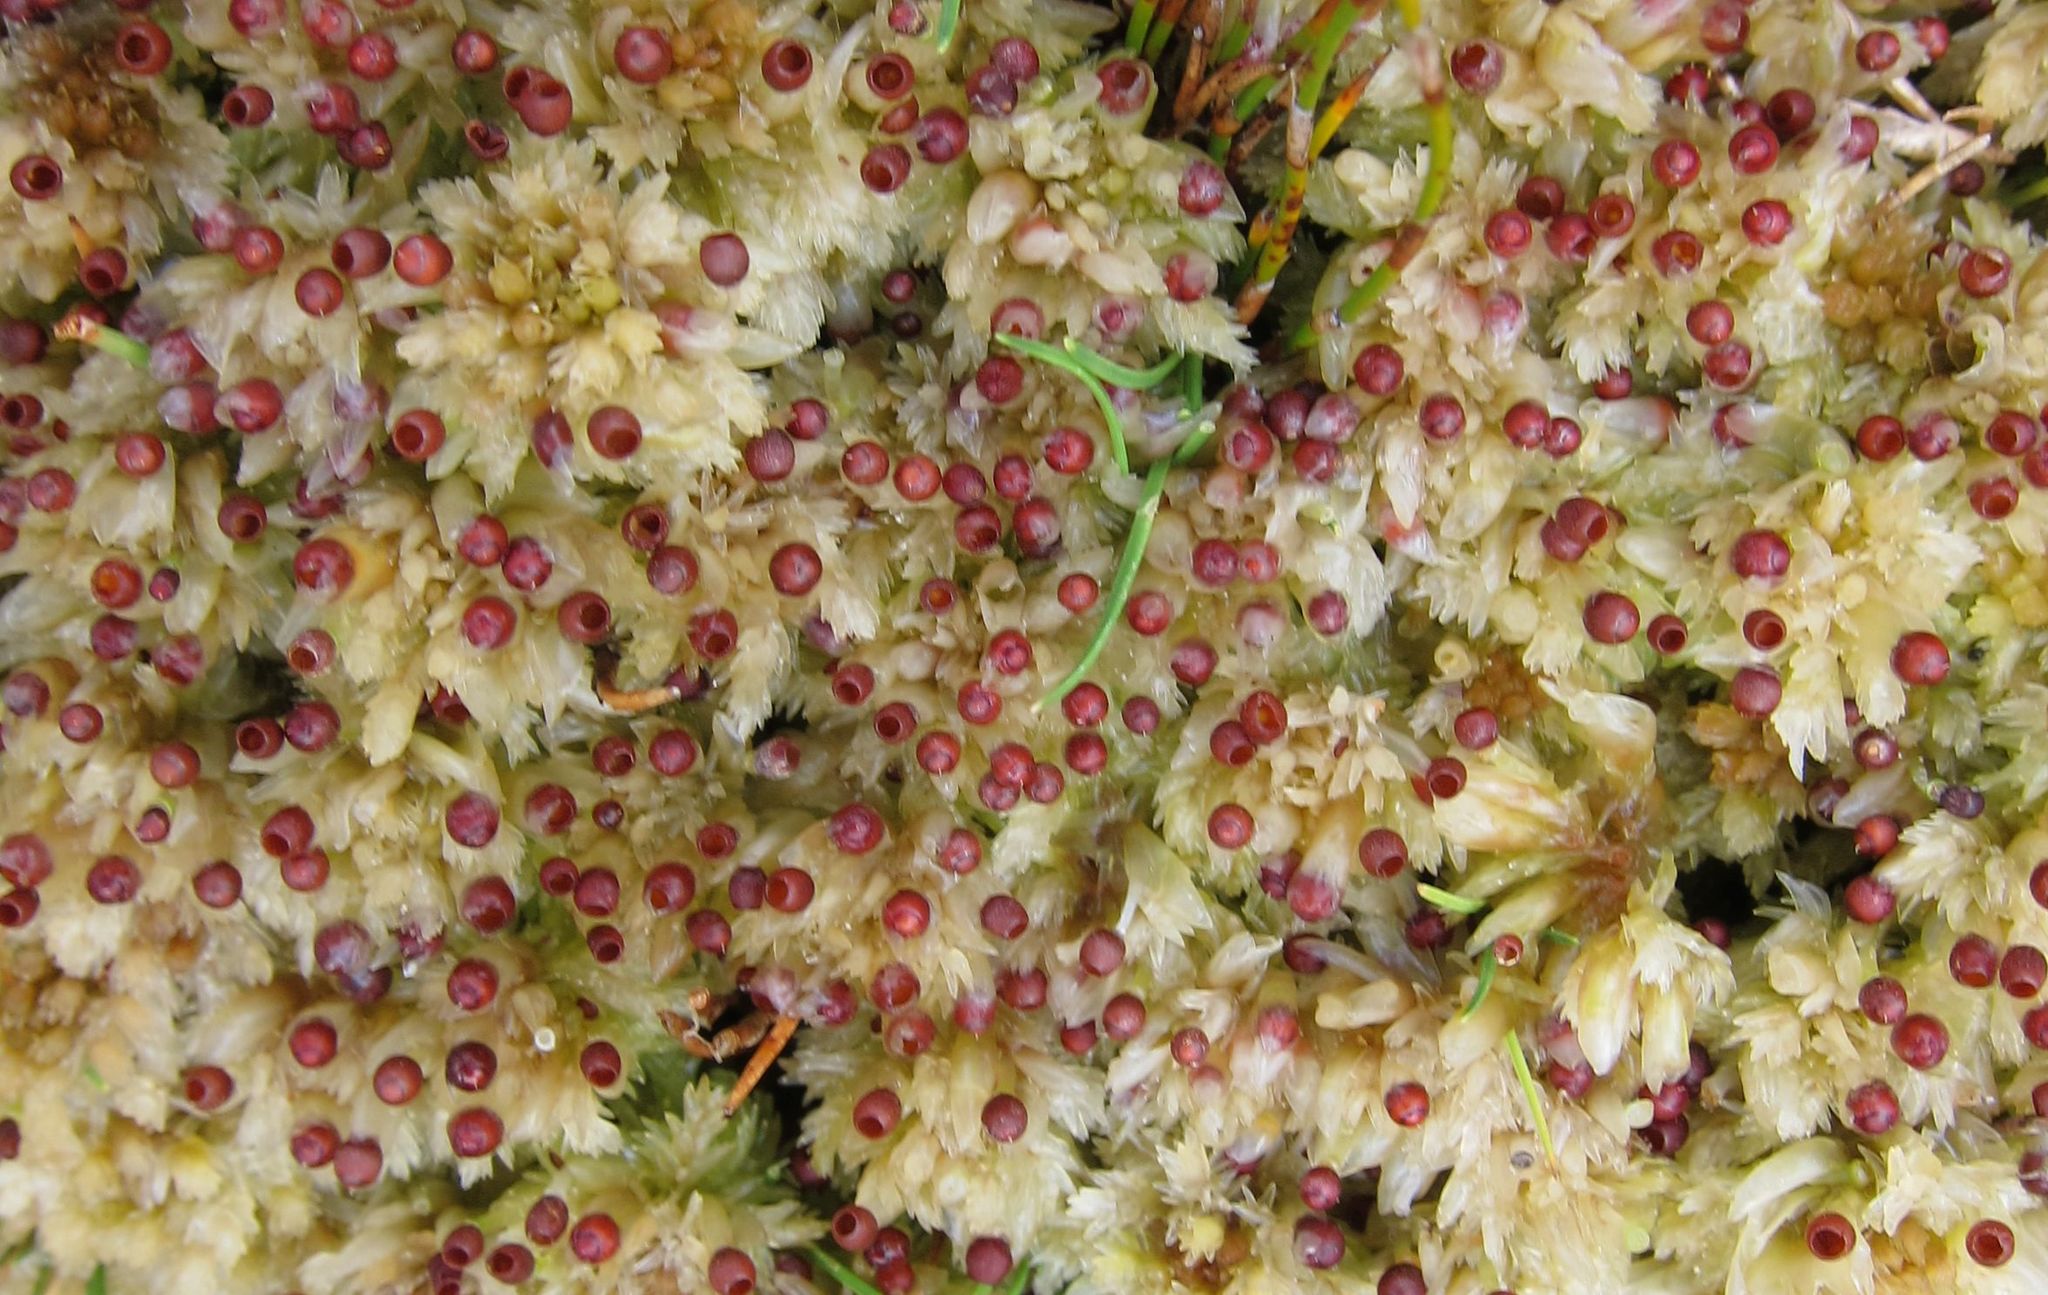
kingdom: Plantae
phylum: Bryophyta
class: Sphagnopsida
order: Sphagnales
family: Sphagnaceae
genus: Sphagnum
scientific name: Sphagnum cristatum
